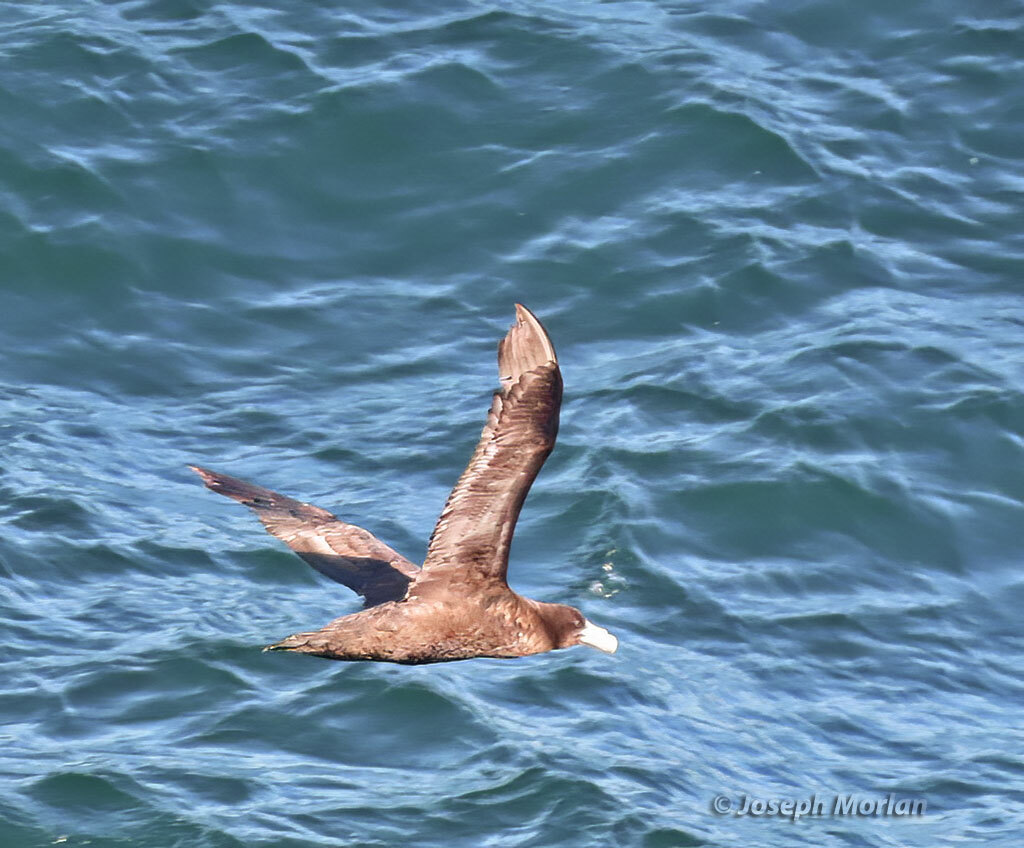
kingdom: Animalia
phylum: Chordata
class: Aves
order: Procellariiformes
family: Procellariidae
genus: Macronectes
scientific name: Macronectes giganteus
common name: Southern giant petrel
